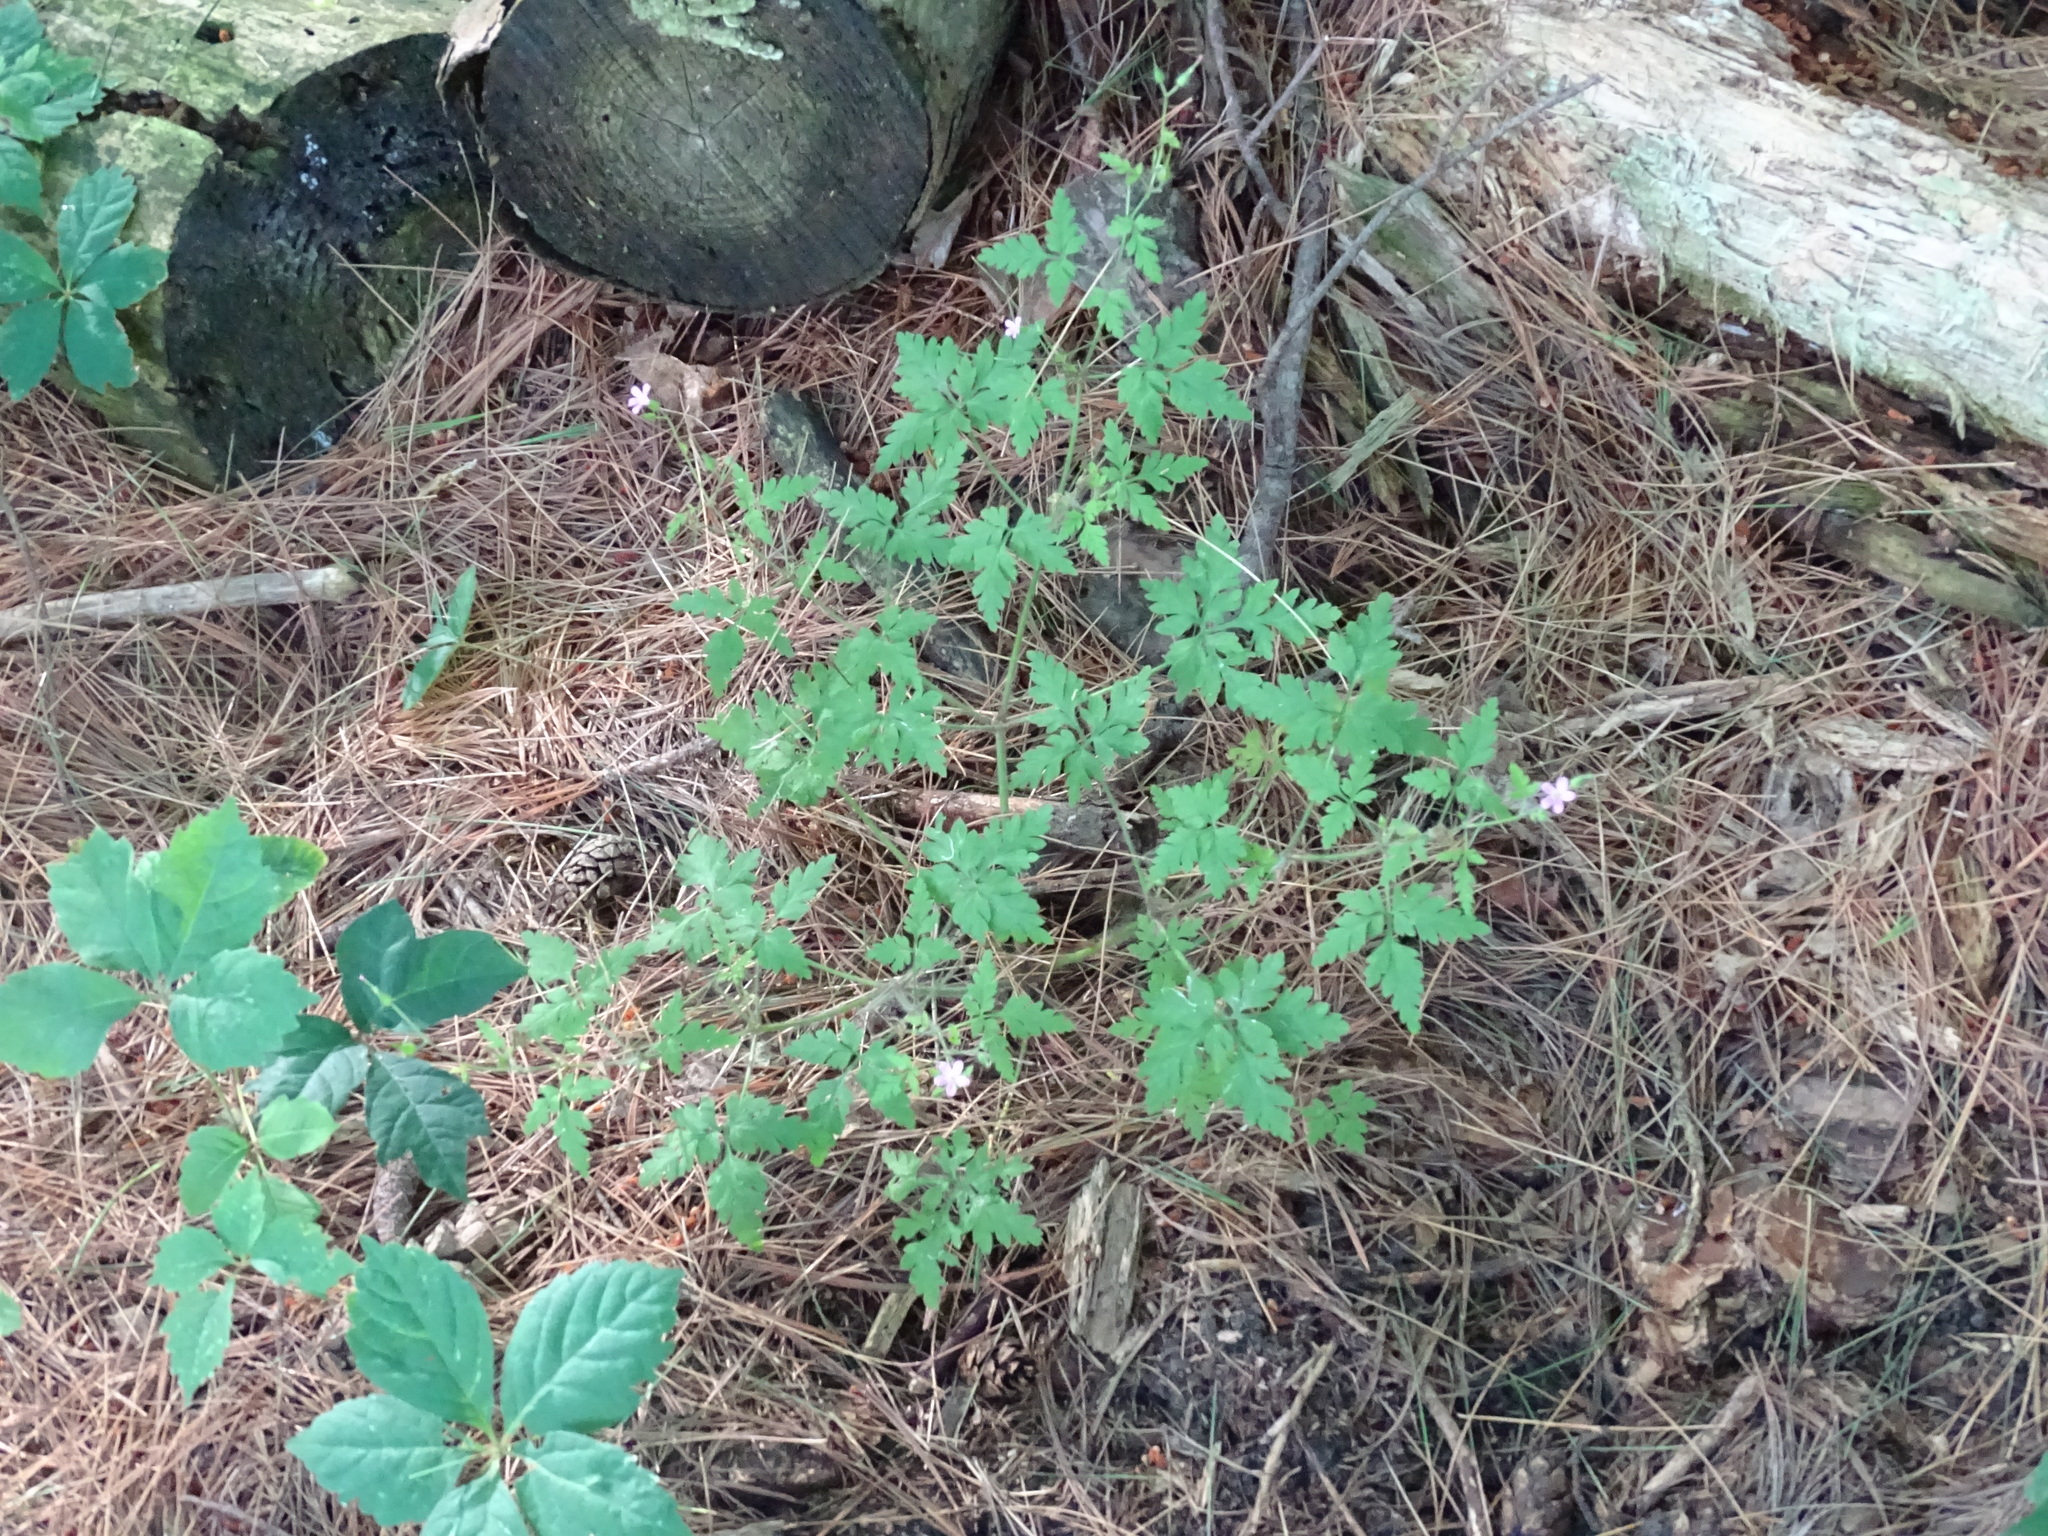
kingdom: Plantae
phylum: Tracheophyta
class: Magnoliopsida
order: Geraniales
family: Geraniaceae
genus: Geranium
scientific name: Geranium robertianum
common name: Herb-robert
